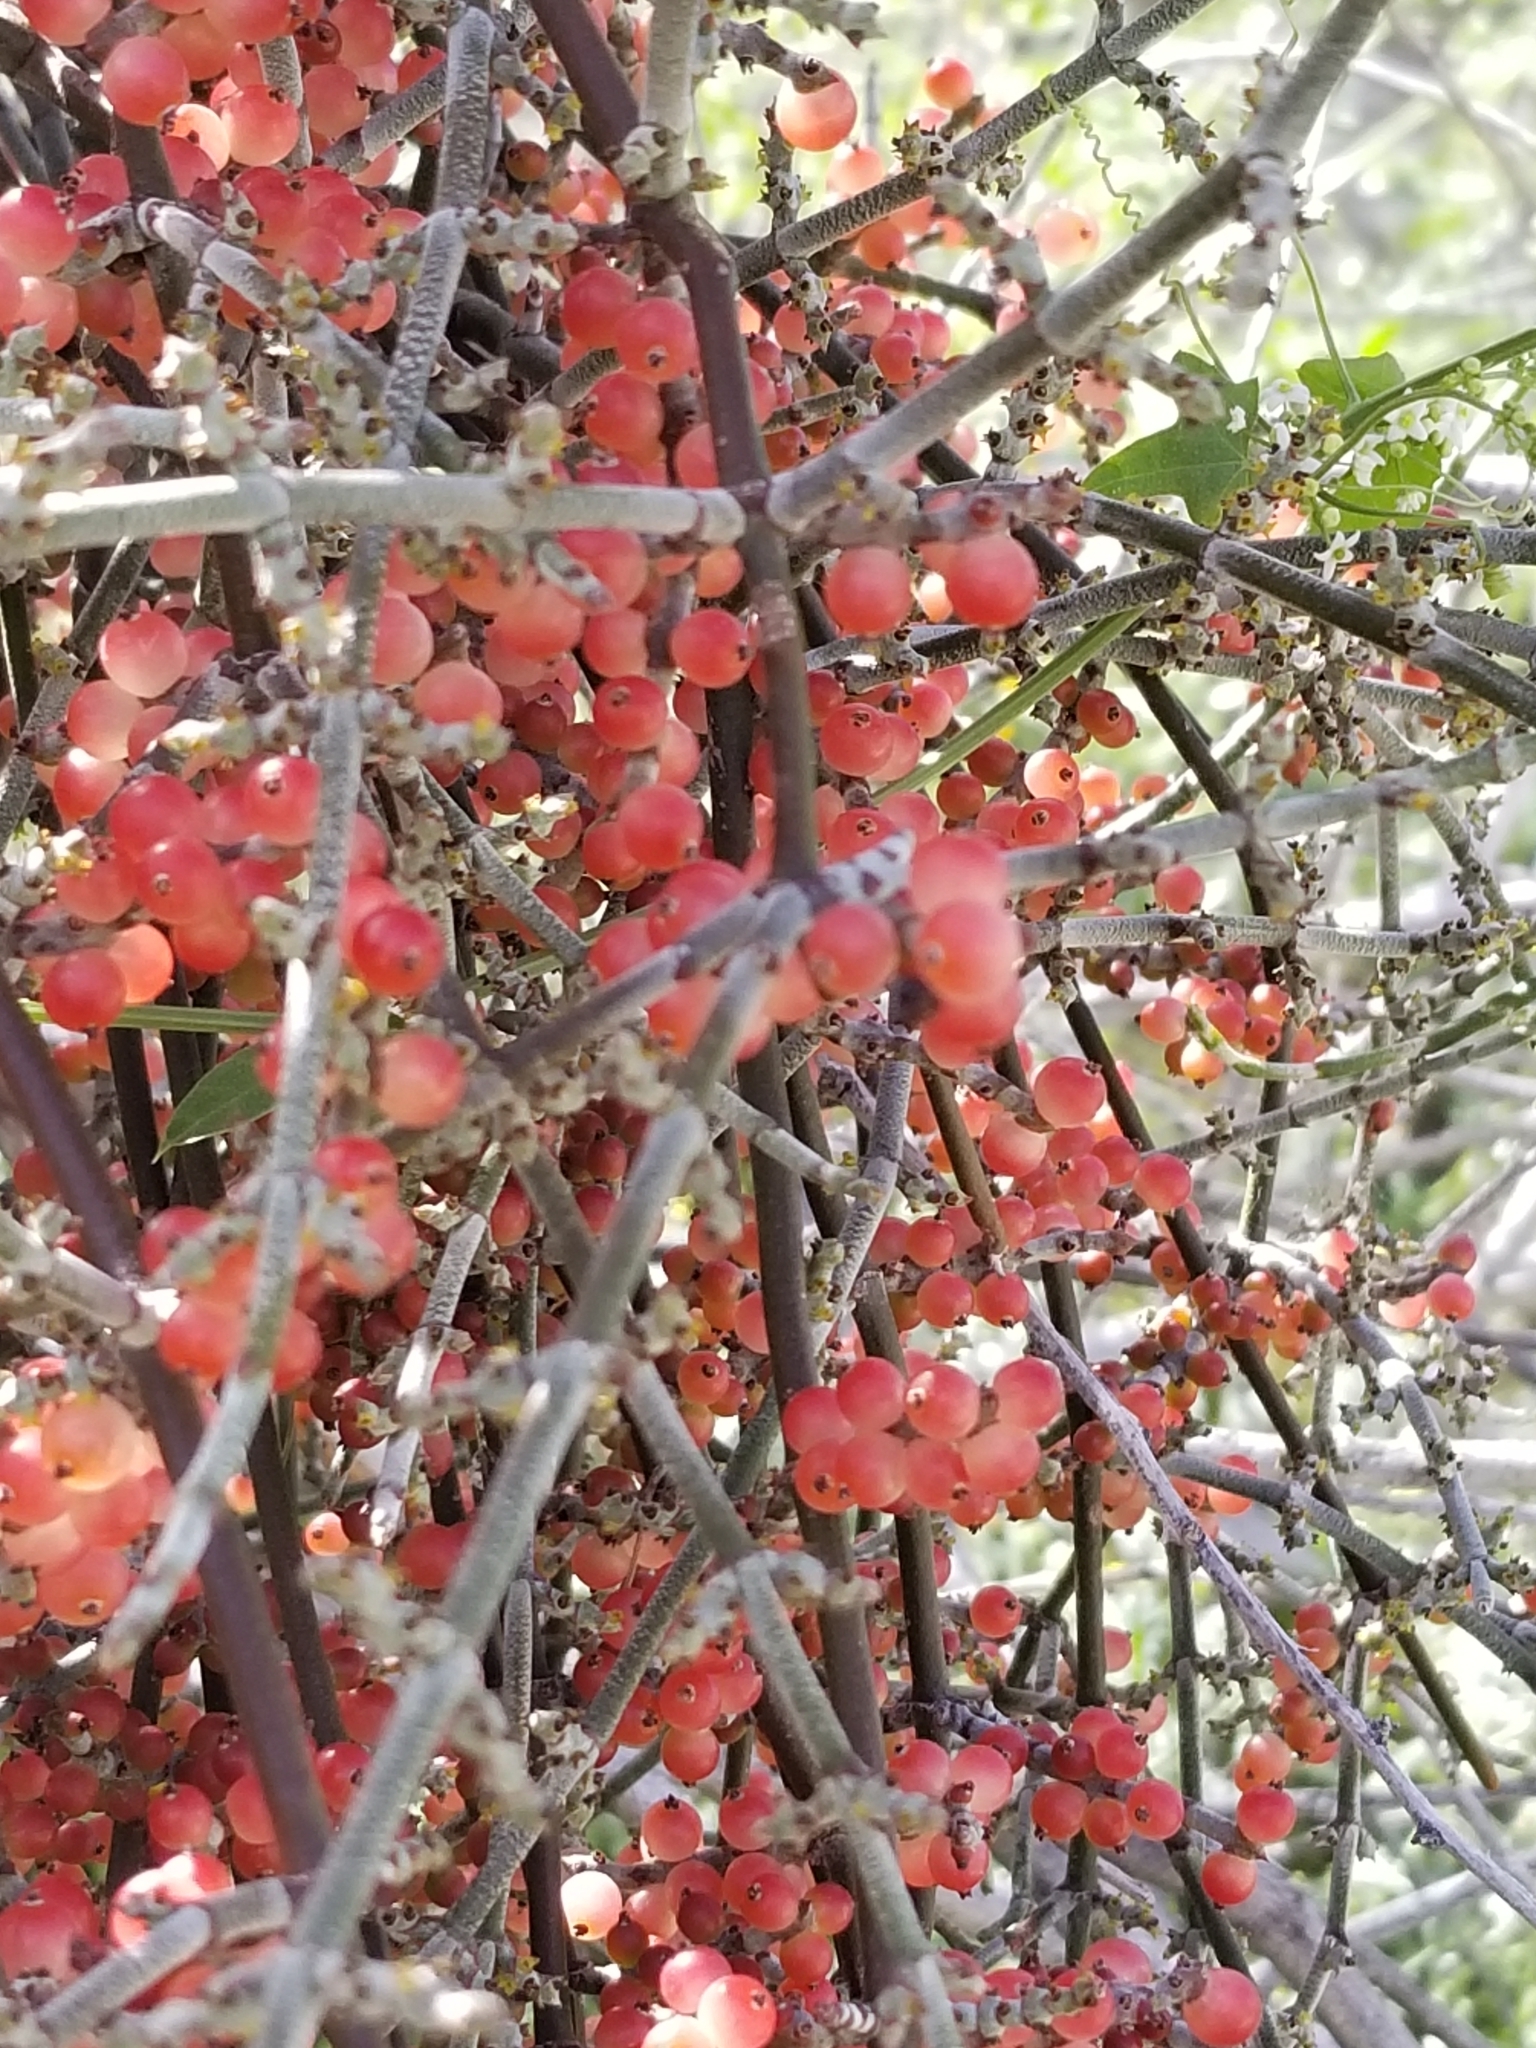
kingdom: Plantae
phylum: Tracheophyta
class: Magnoliopsida
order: Santalales
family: Viscaceae
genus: Phoradendron
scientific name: Phoradendron californicum
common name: Acacia mistletoe
